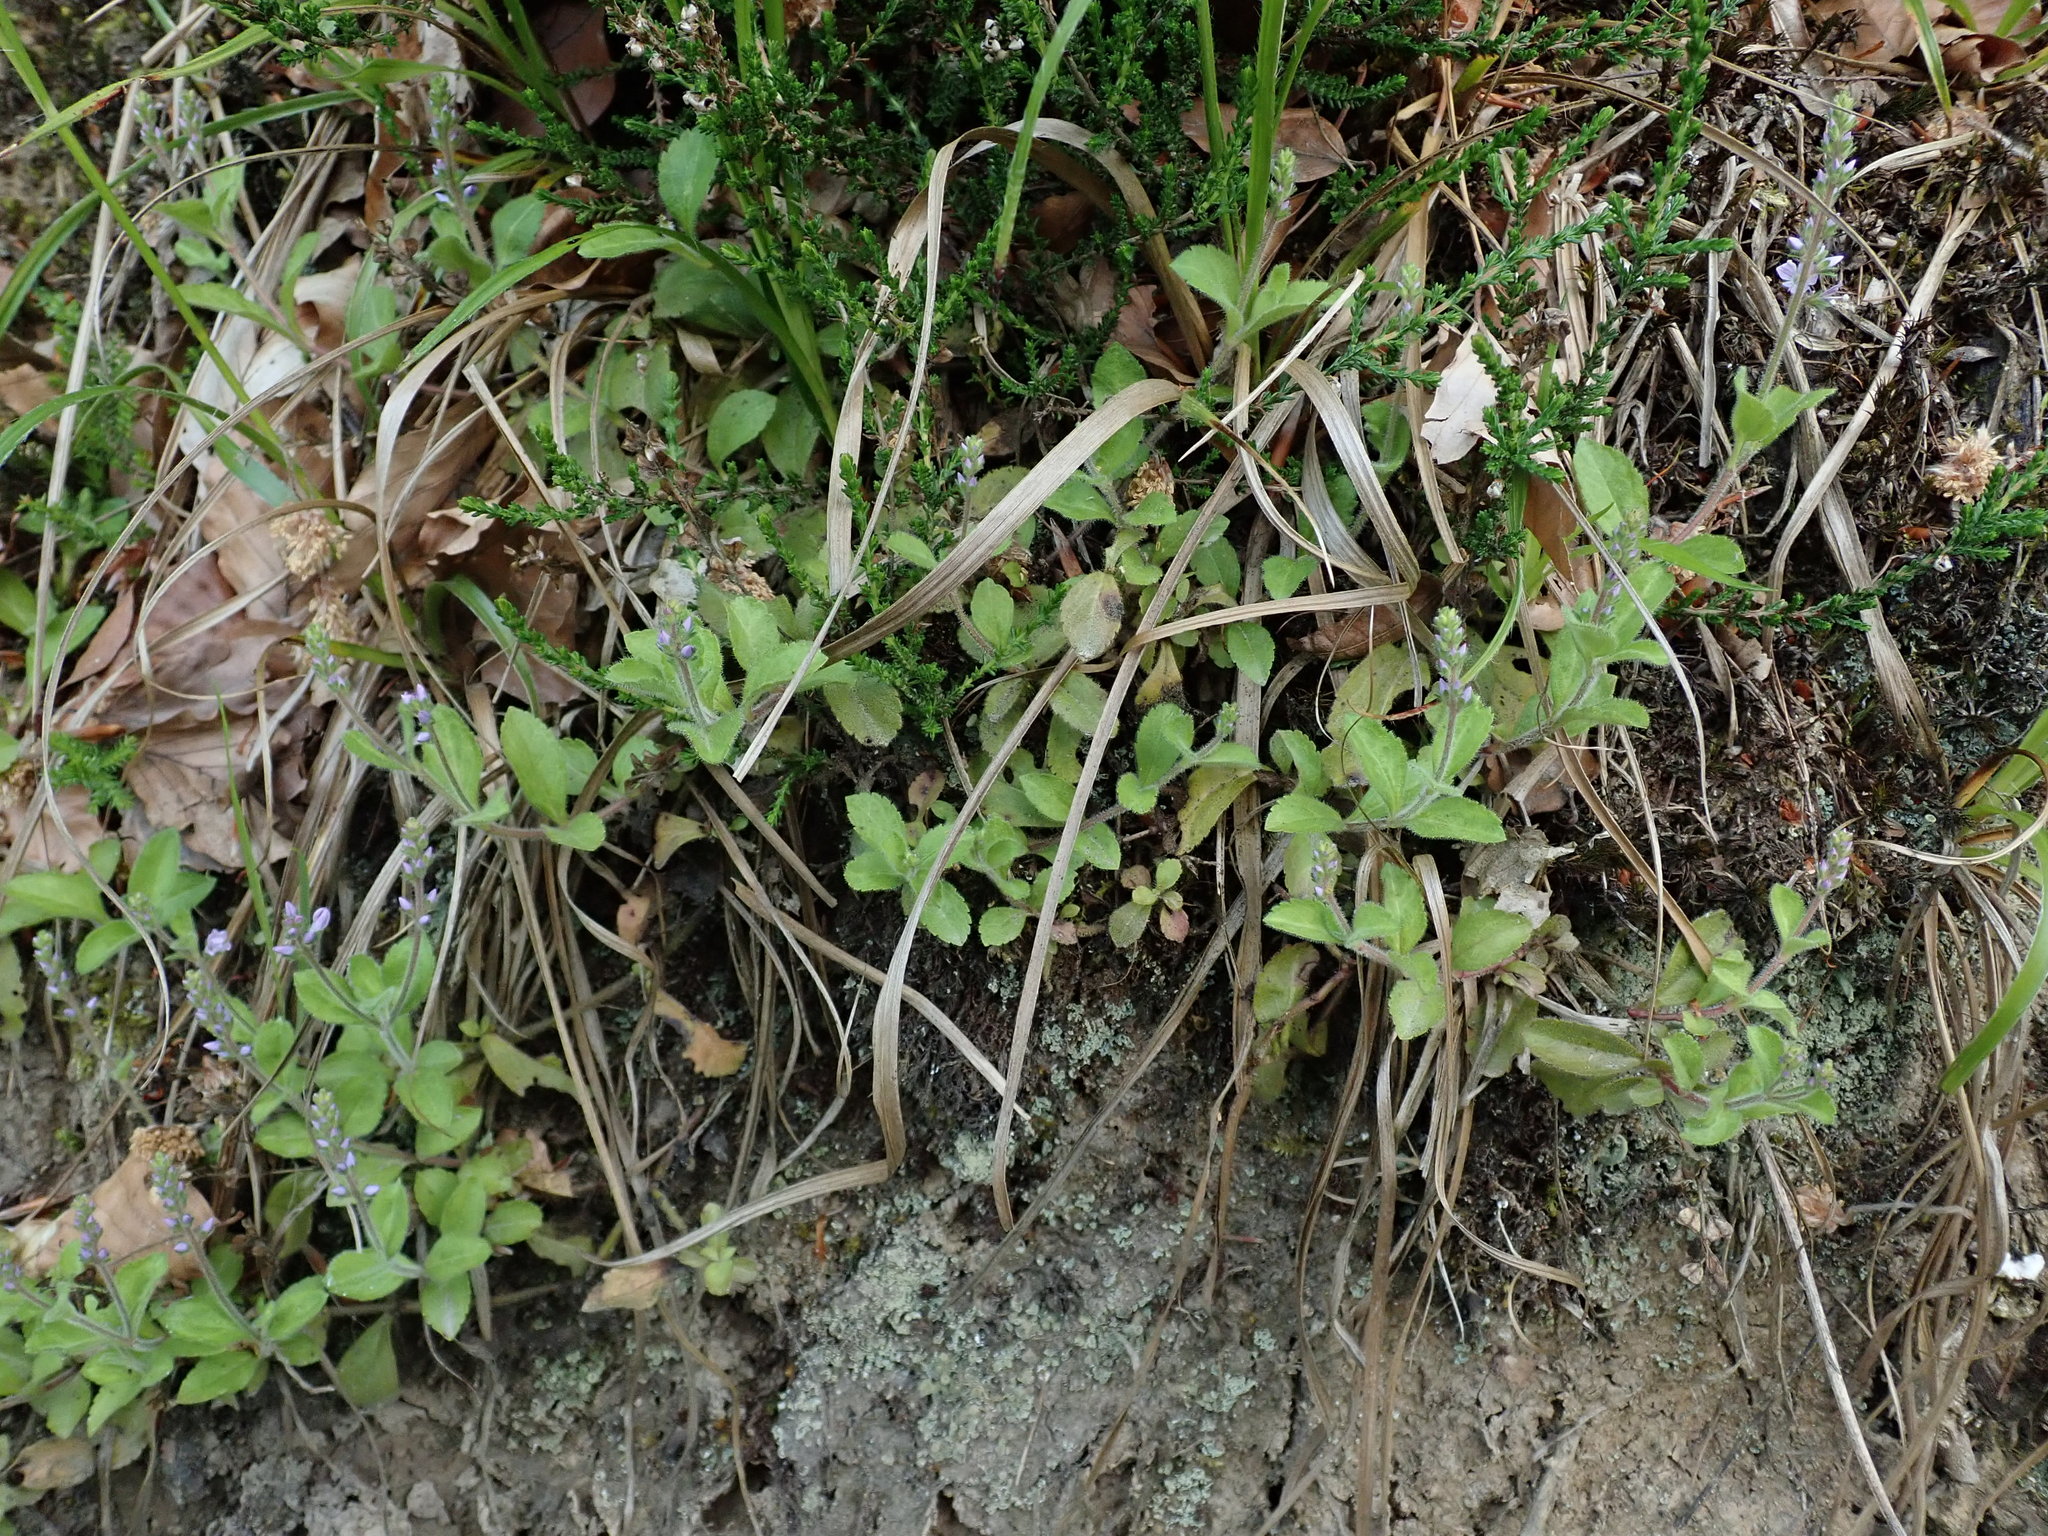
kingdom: Plantae
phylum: Tracheophyta
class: Magnoliopsida
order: Lamiales
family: Plantaginaceae
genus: Veronica
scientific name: Veronica officinalis
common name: Common speedwell
